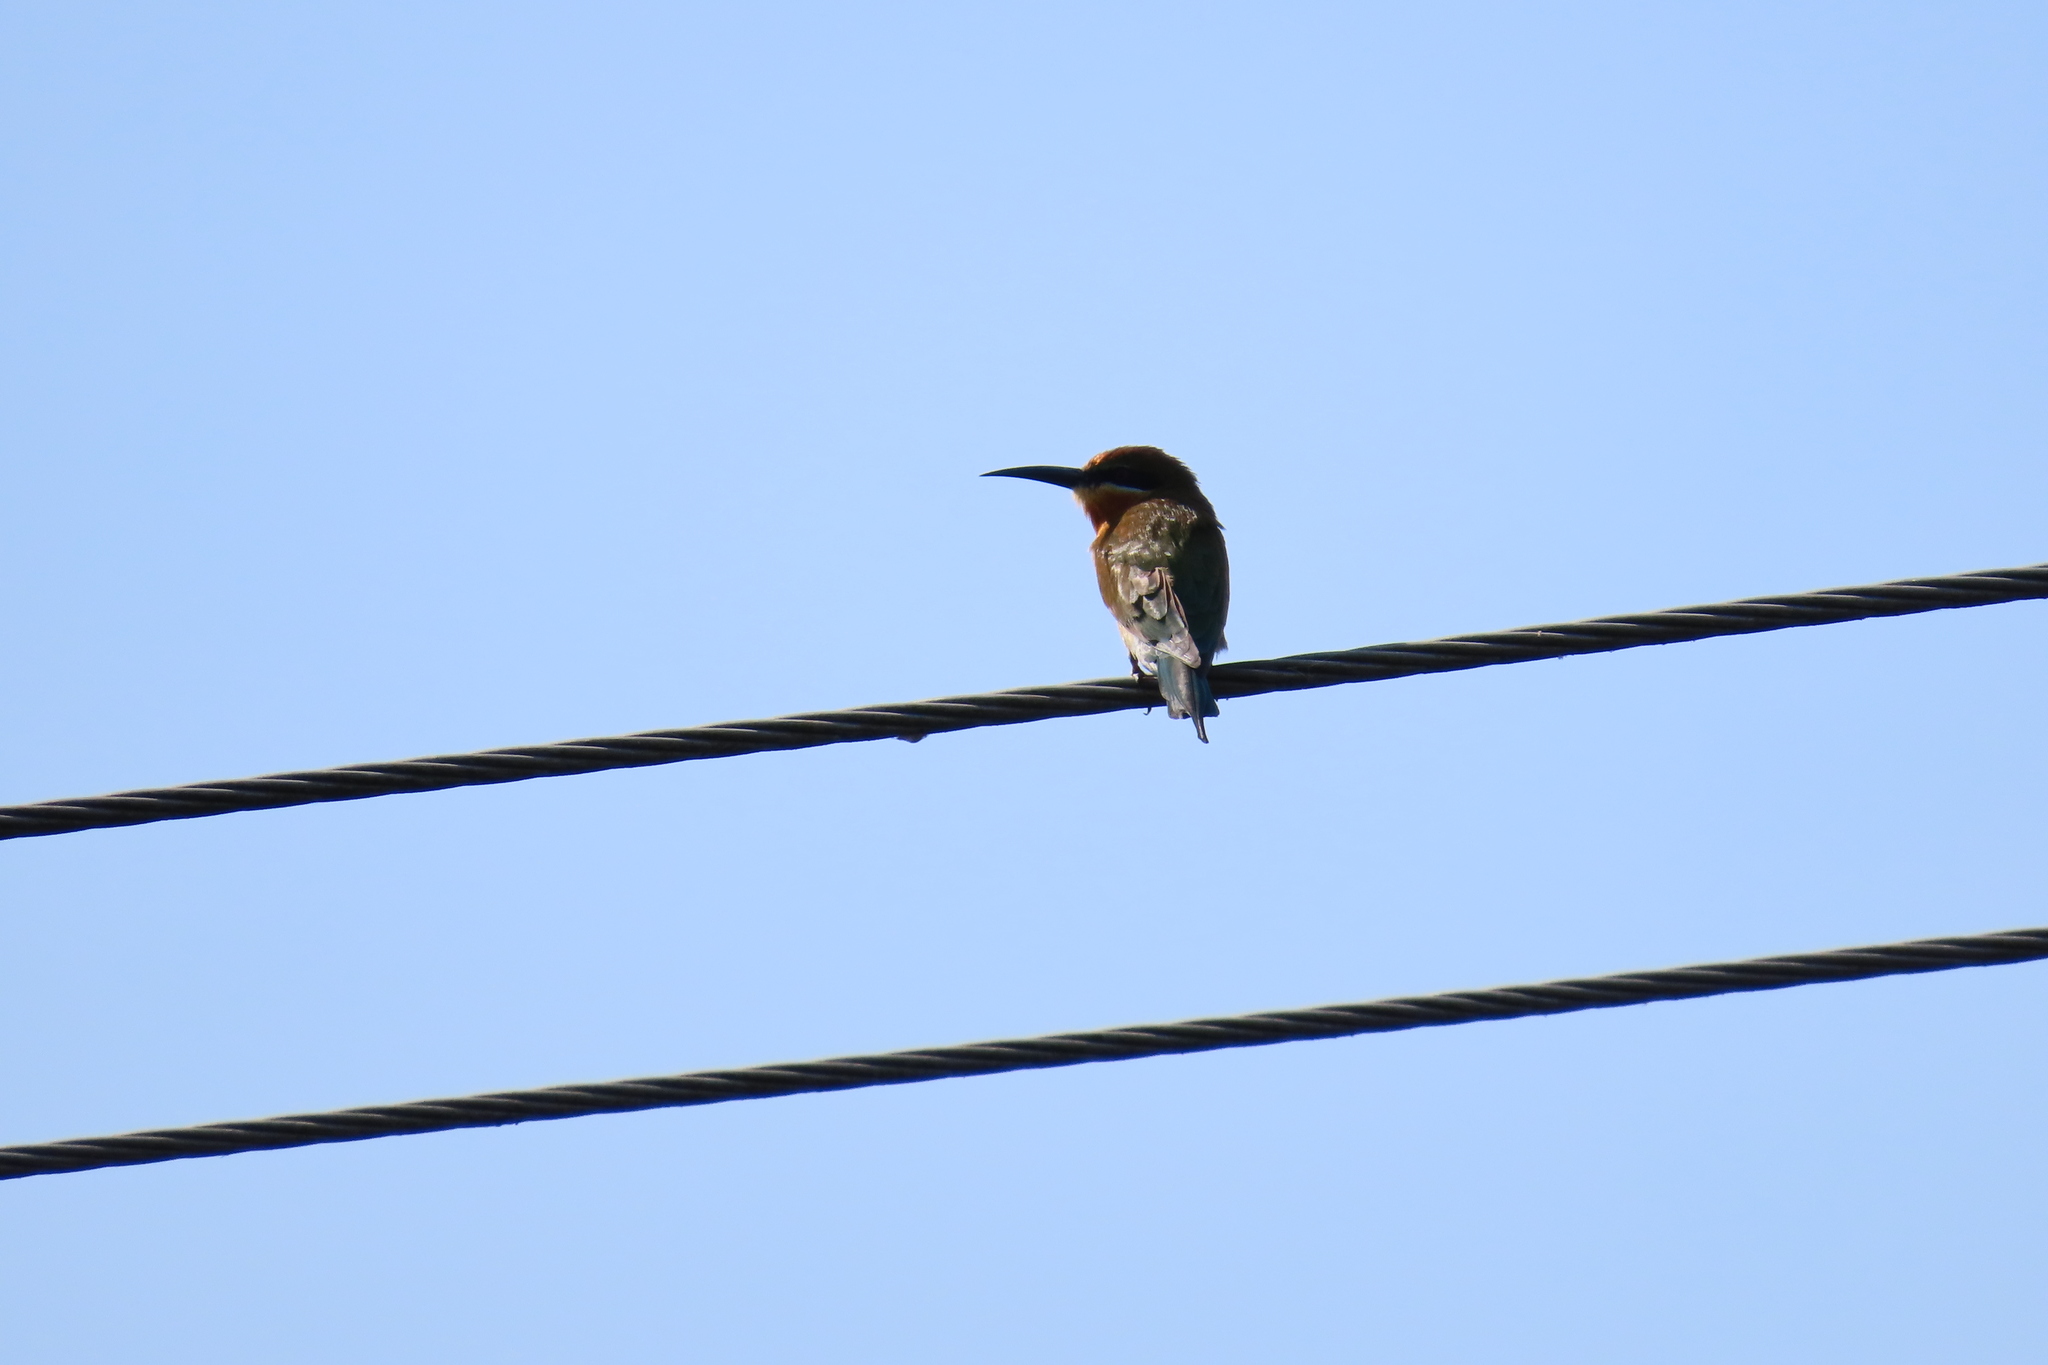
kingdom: Animalia
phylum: Chordata
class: Aves
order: Coraciiformes
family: Meropidae
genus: Merops
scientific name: Merops philippinus
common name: Blue-tailed bee-eater
